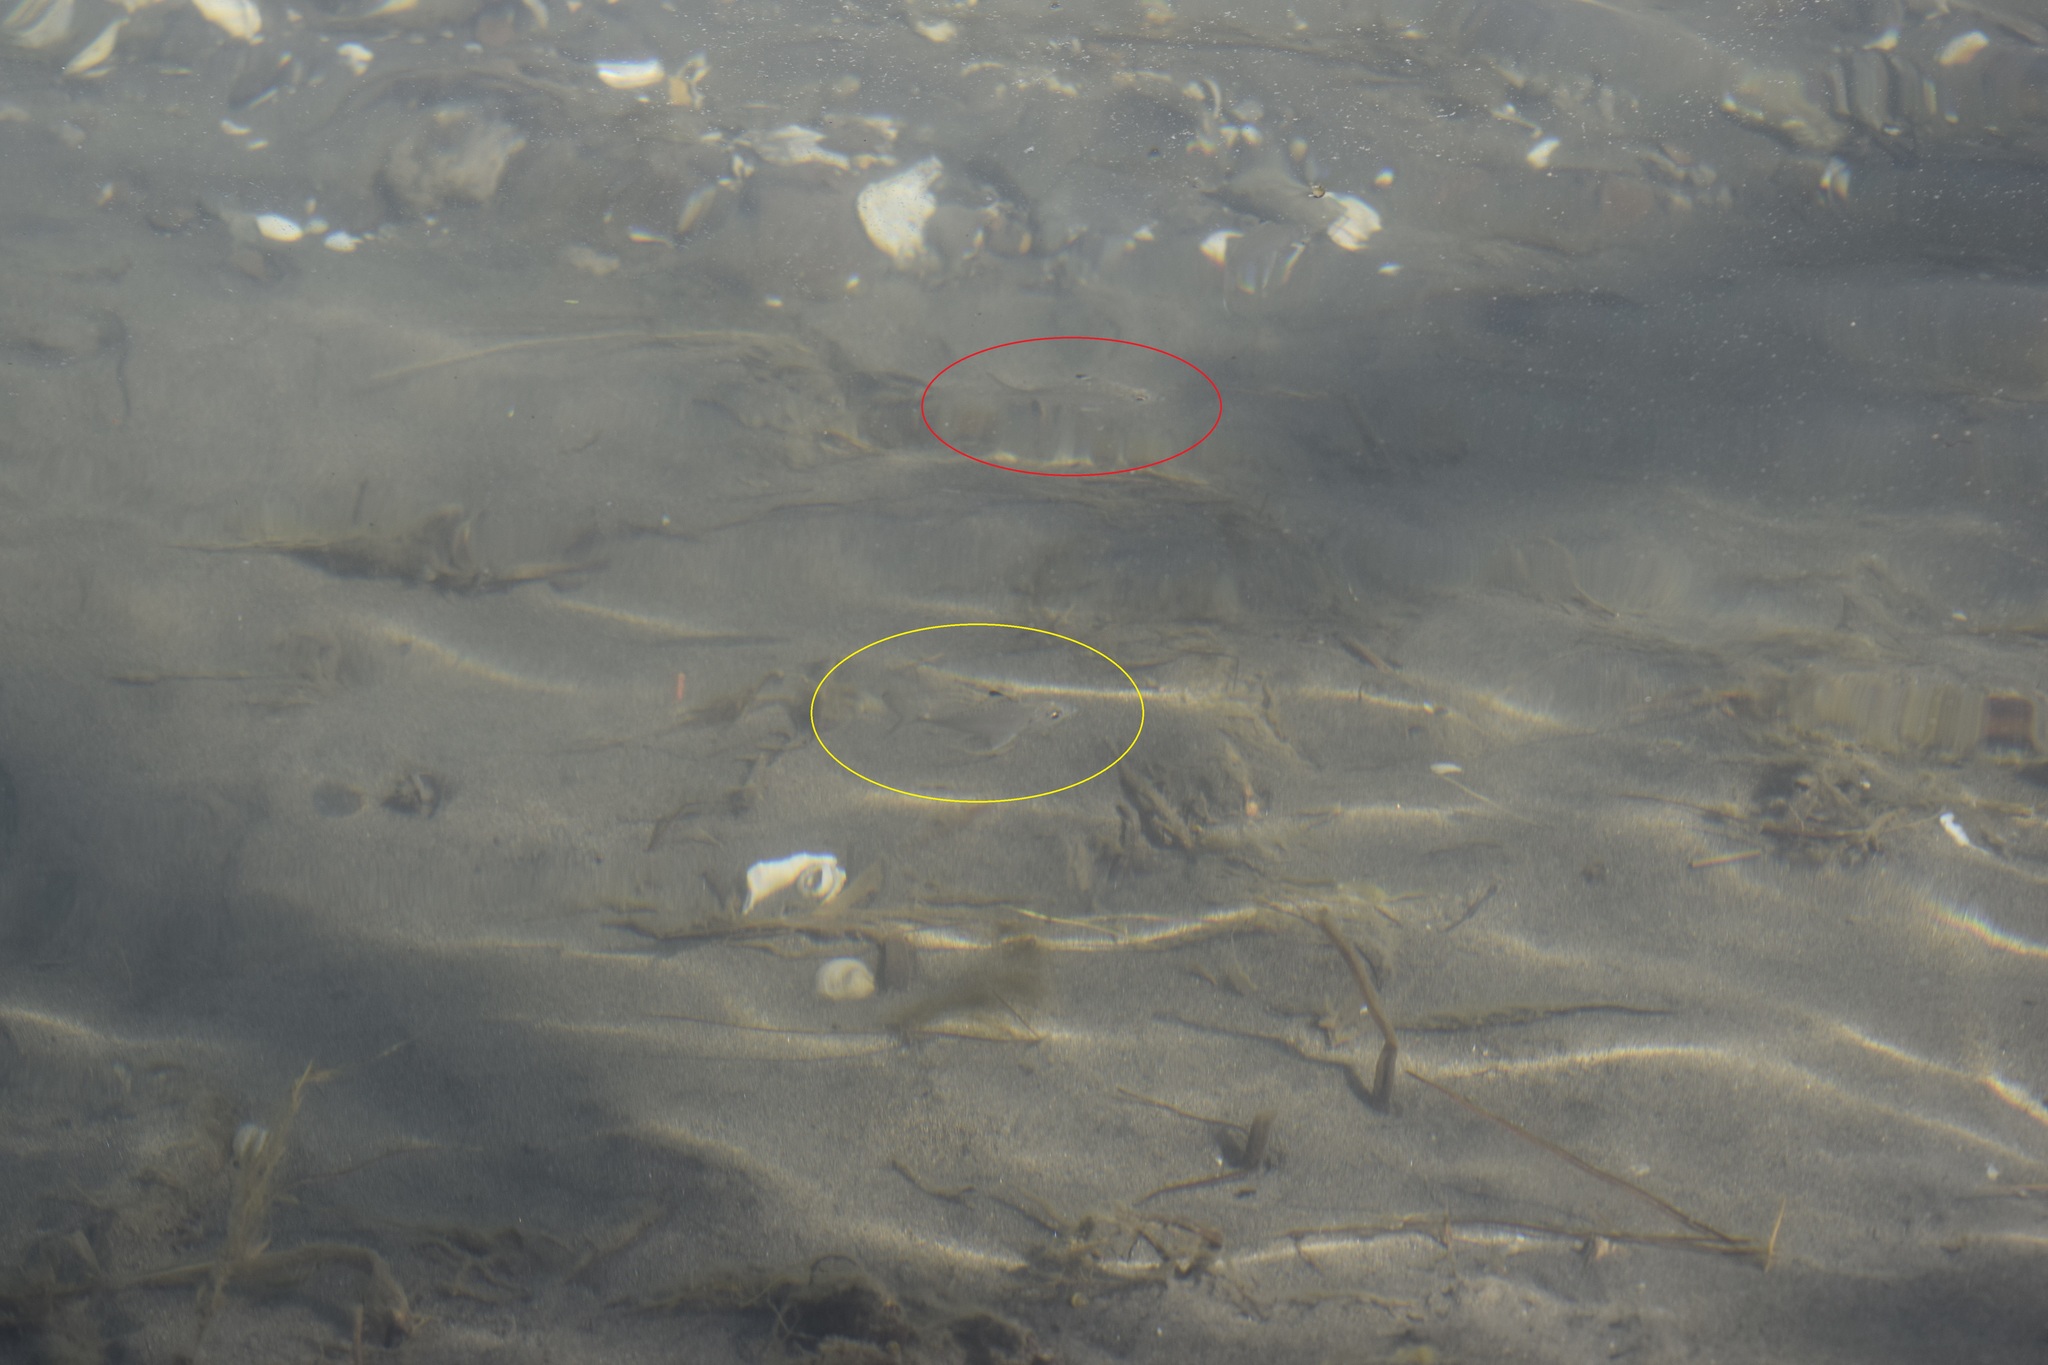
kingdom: Animalia
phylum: Chordata
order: Perciformes
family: Gerreidae
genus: Eucinostomus
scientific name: Eucinostomus melanopterus
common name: Flagfin mojarra
